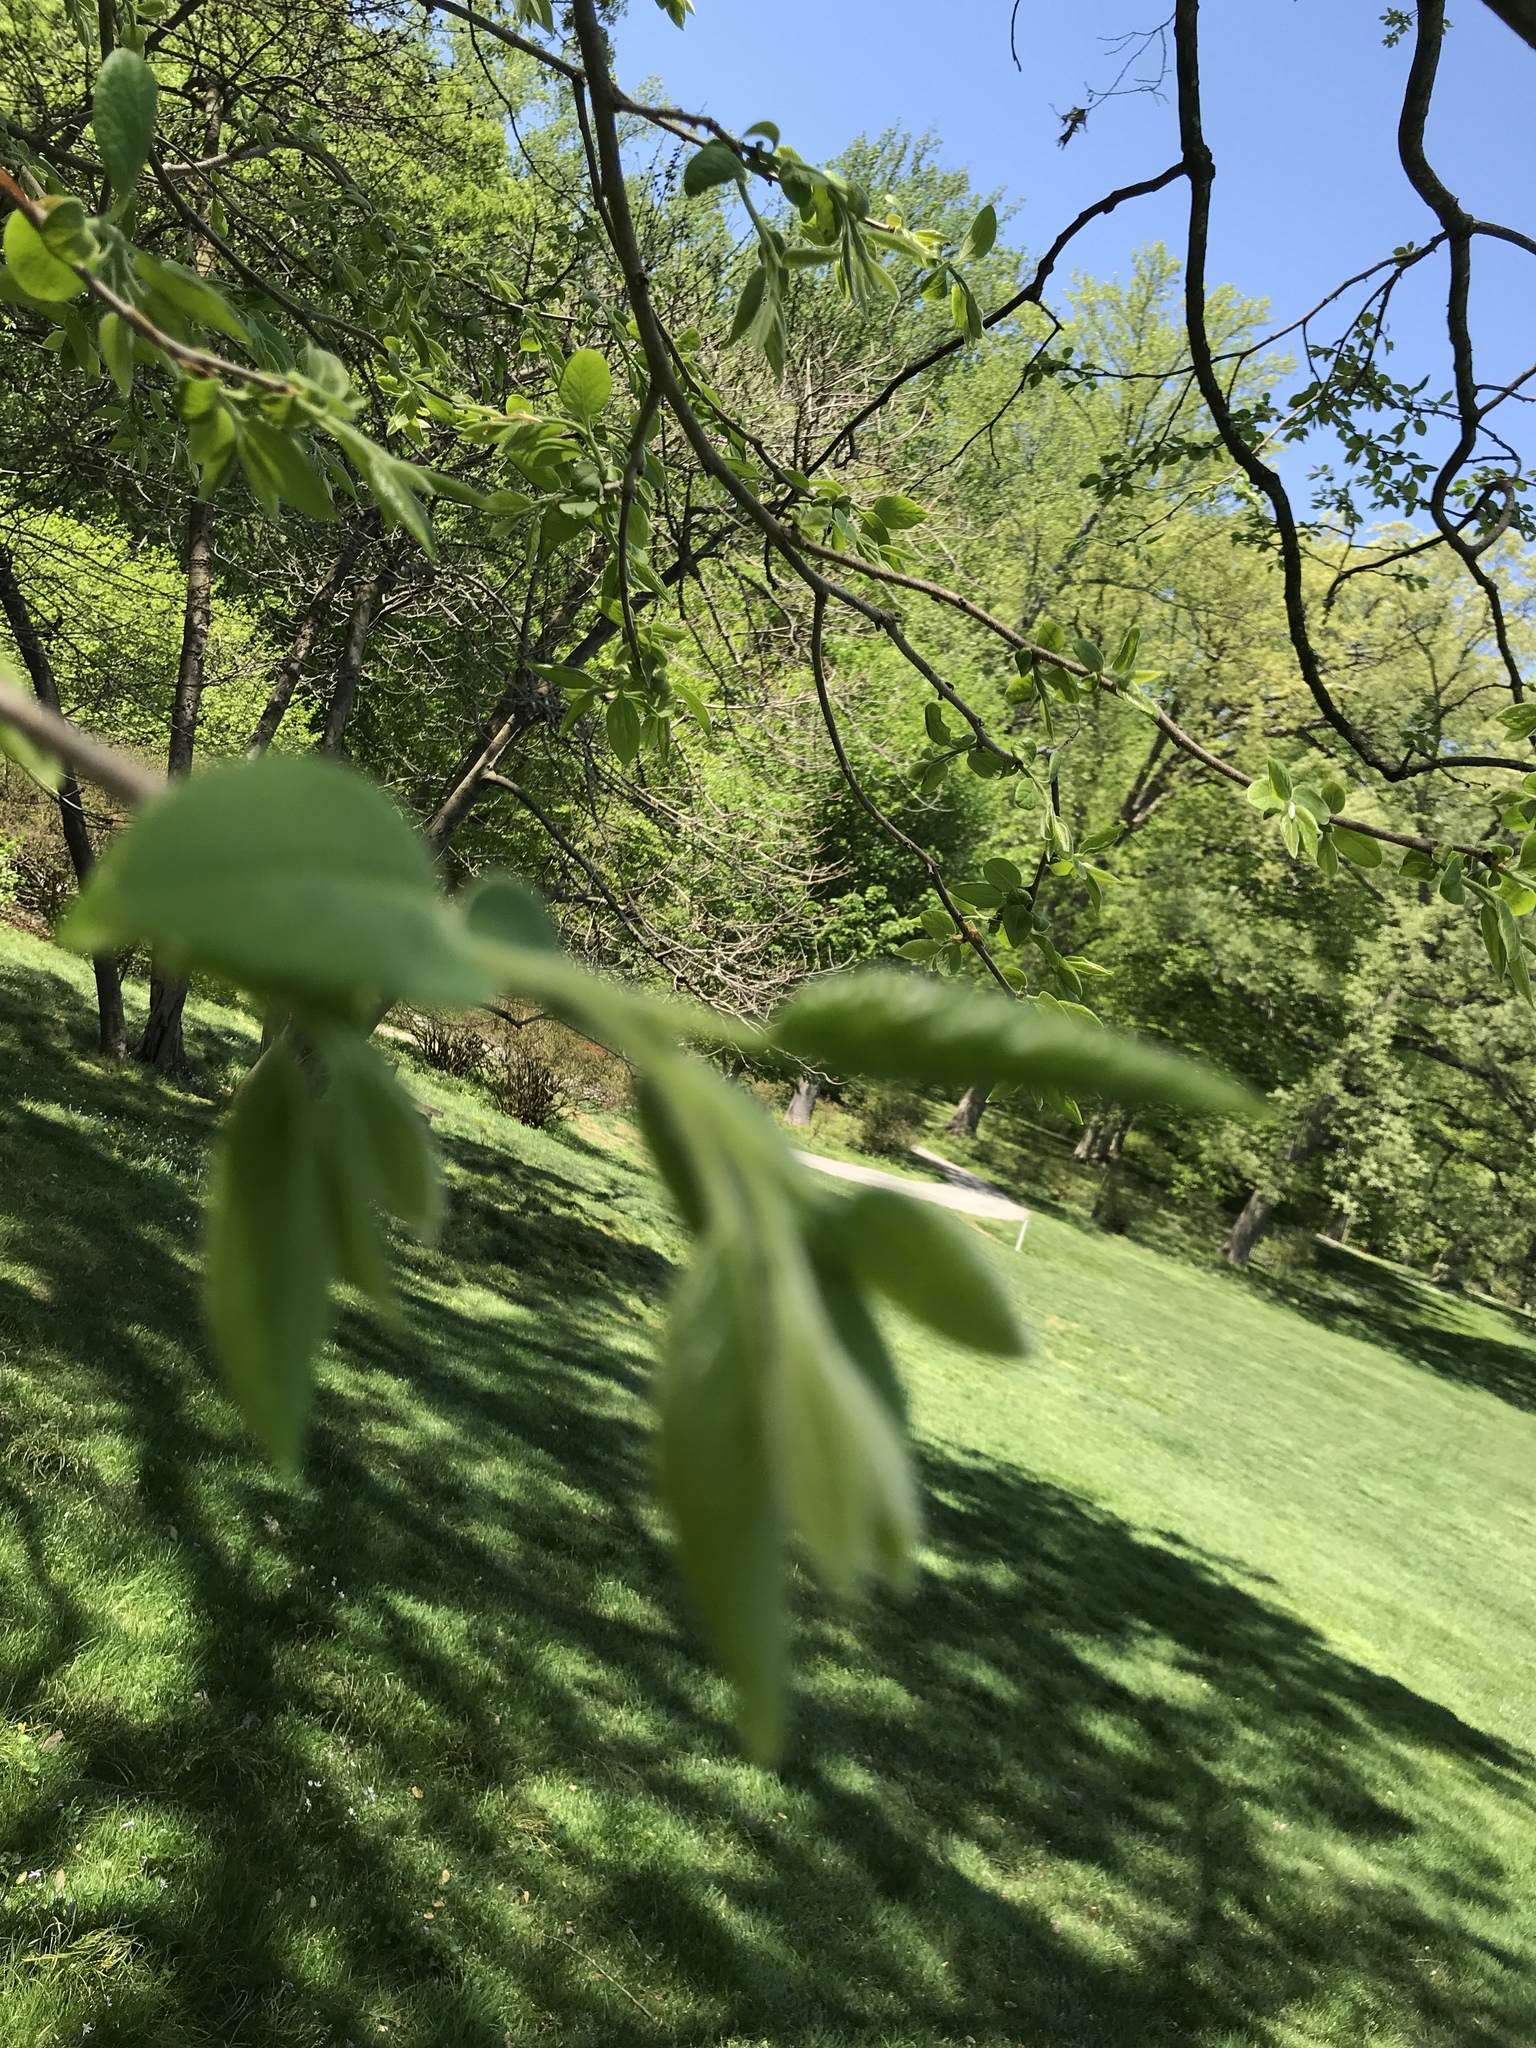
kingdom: Plantae
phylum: Tracheophyta
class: Magnoliopsida
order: Ericales
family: Ebenaceae
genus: Diospyros
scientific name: Diospyros virginiana
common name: Persimmon
